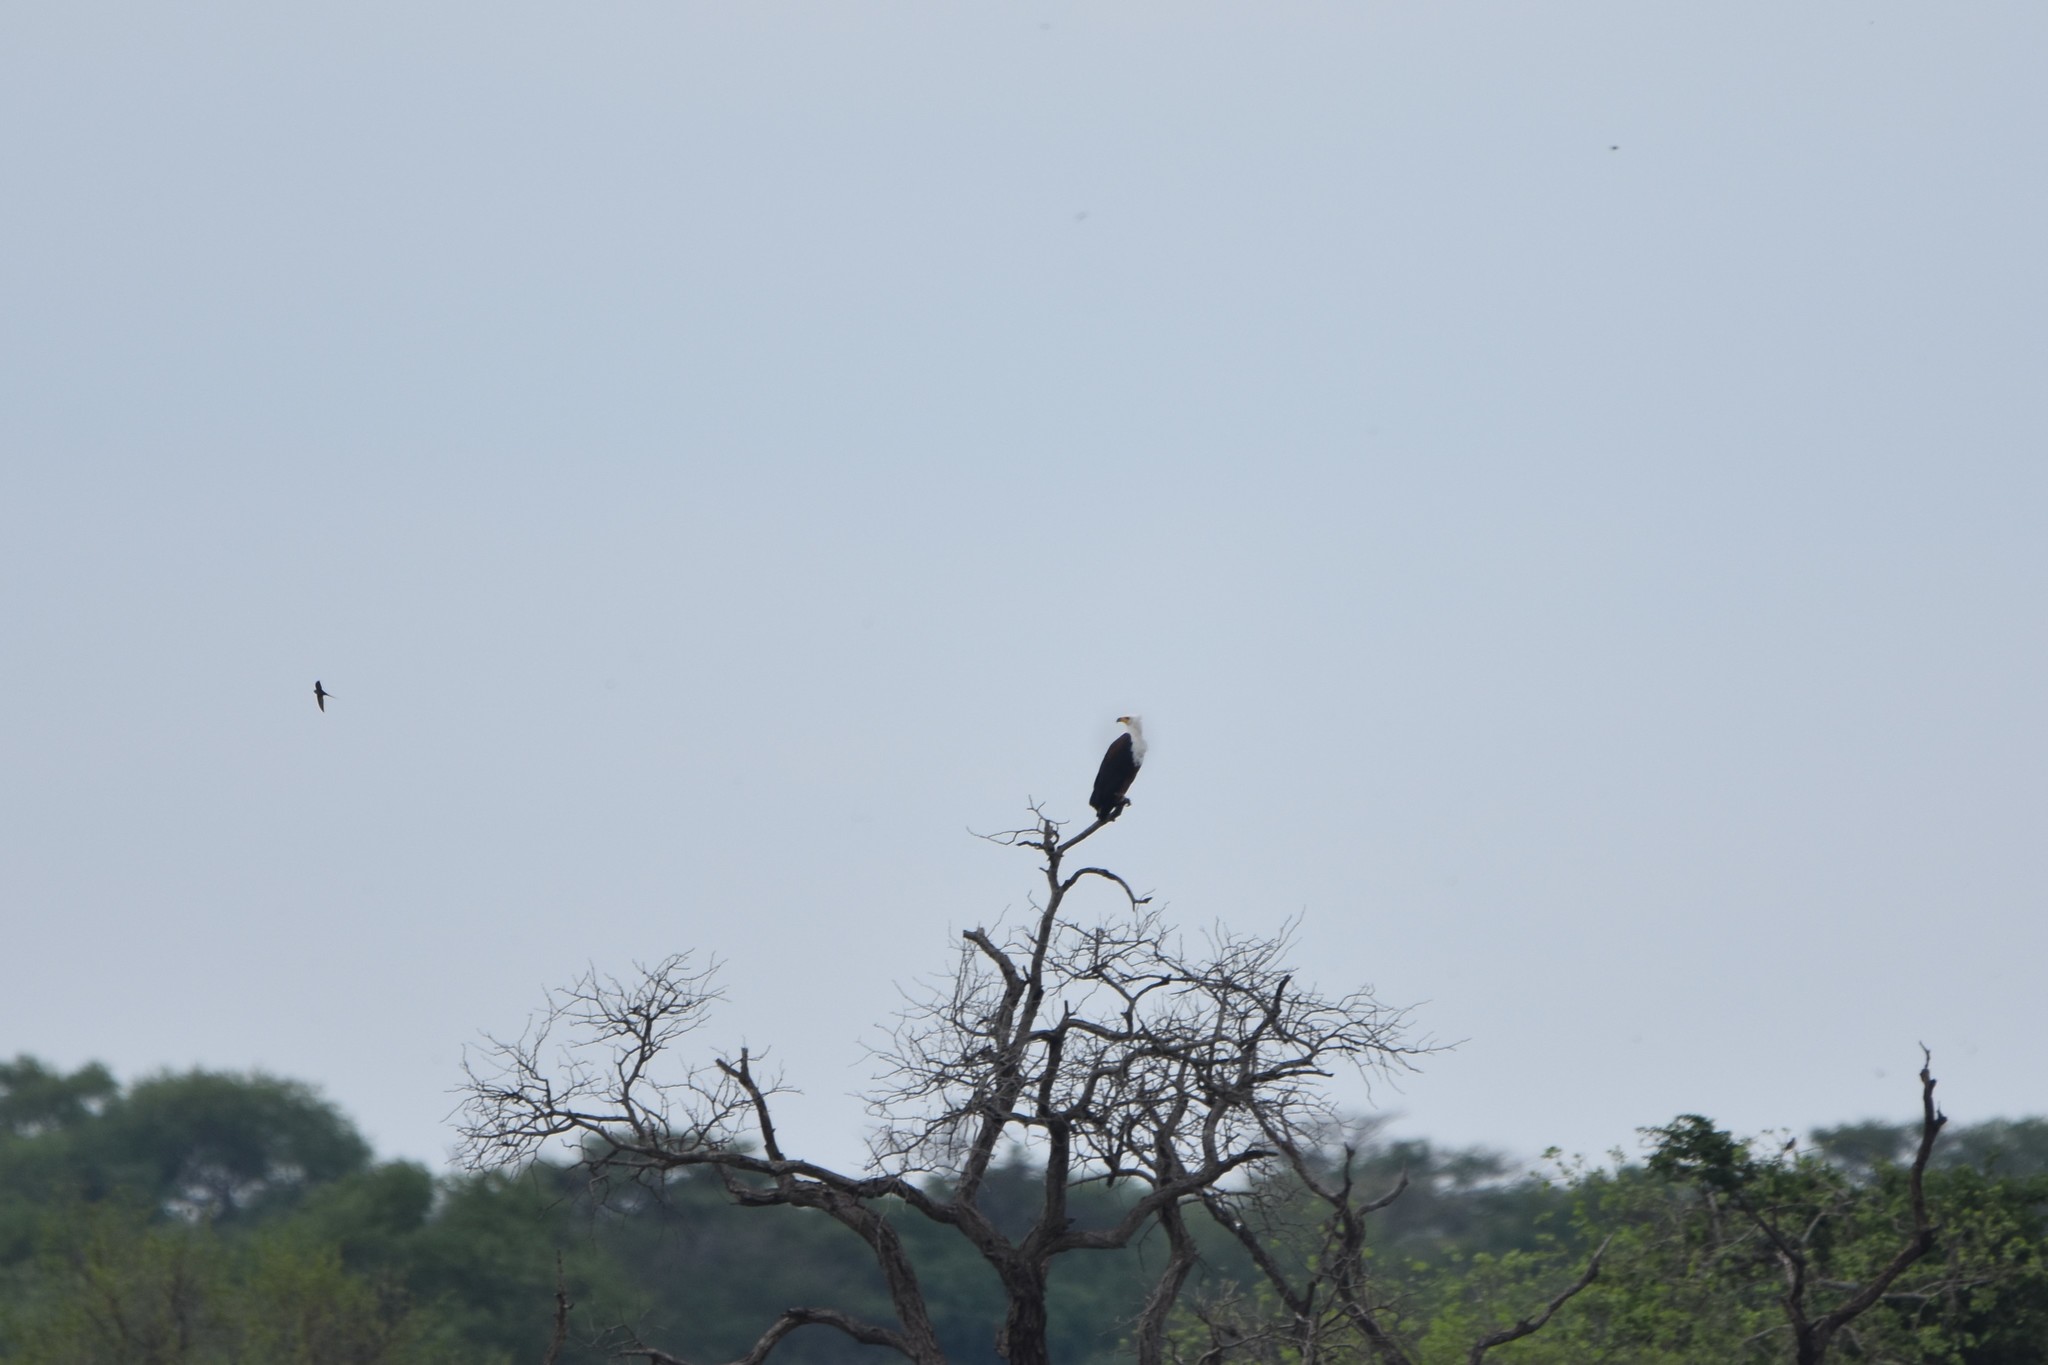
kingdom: Animalia
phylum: Chordata
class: Aves
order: Accipitriformes
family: Accipitridae
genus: Haliaeetus
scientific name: Haliaeetus vocifer
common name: African fish eagle
